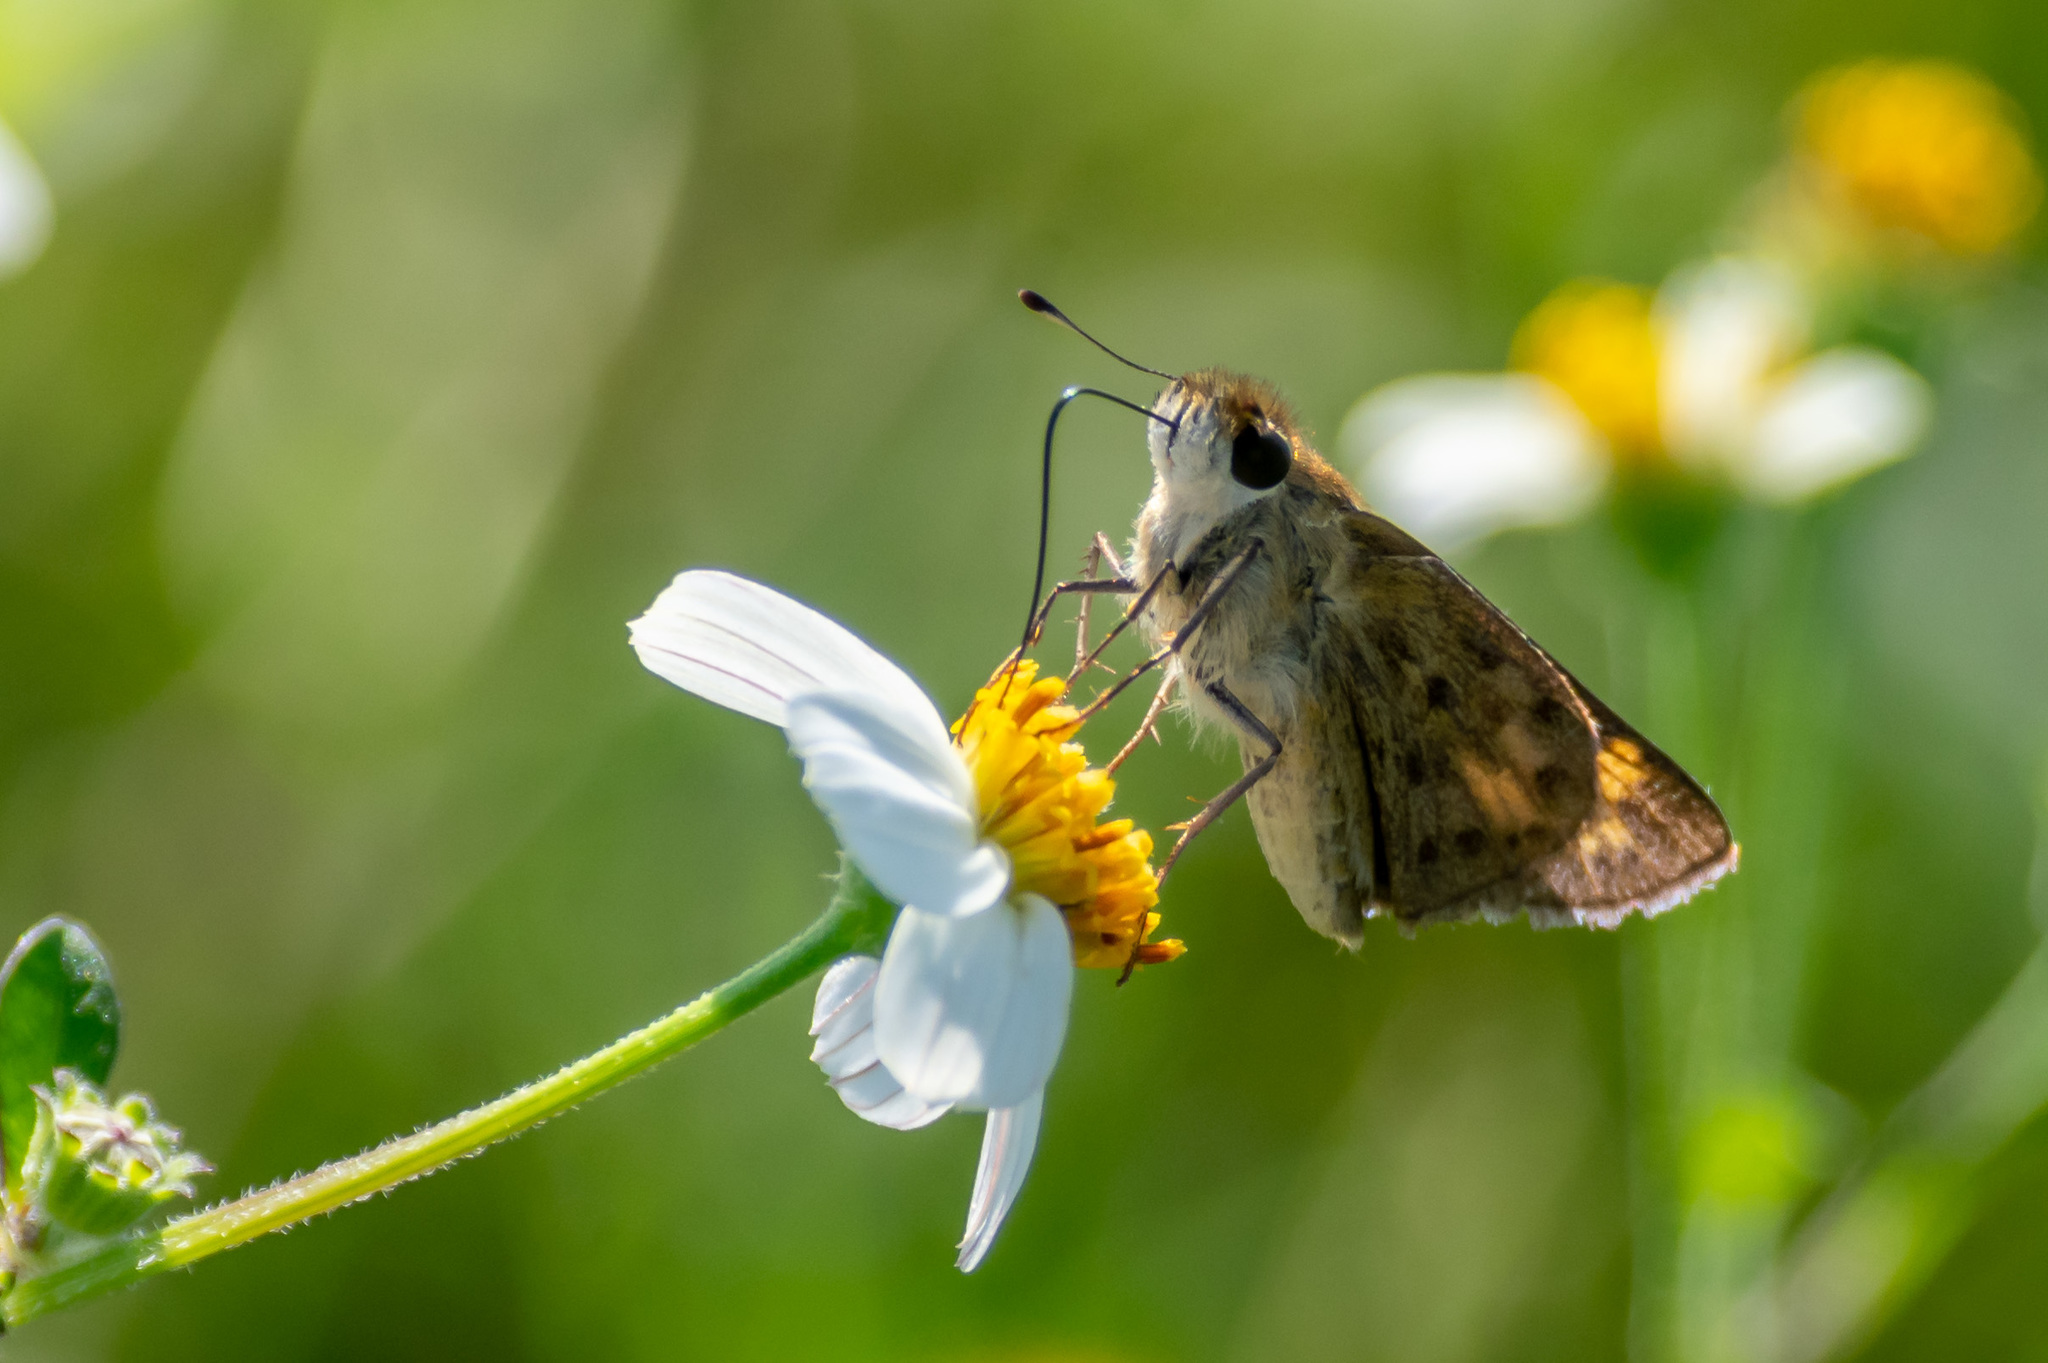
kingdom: Animalia
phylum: Arthropoda
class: Insecta
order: Lepidoptera
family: Hesperiidae
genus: Hylephila
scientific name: Hylephila phyleus
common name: Fiery skipper
